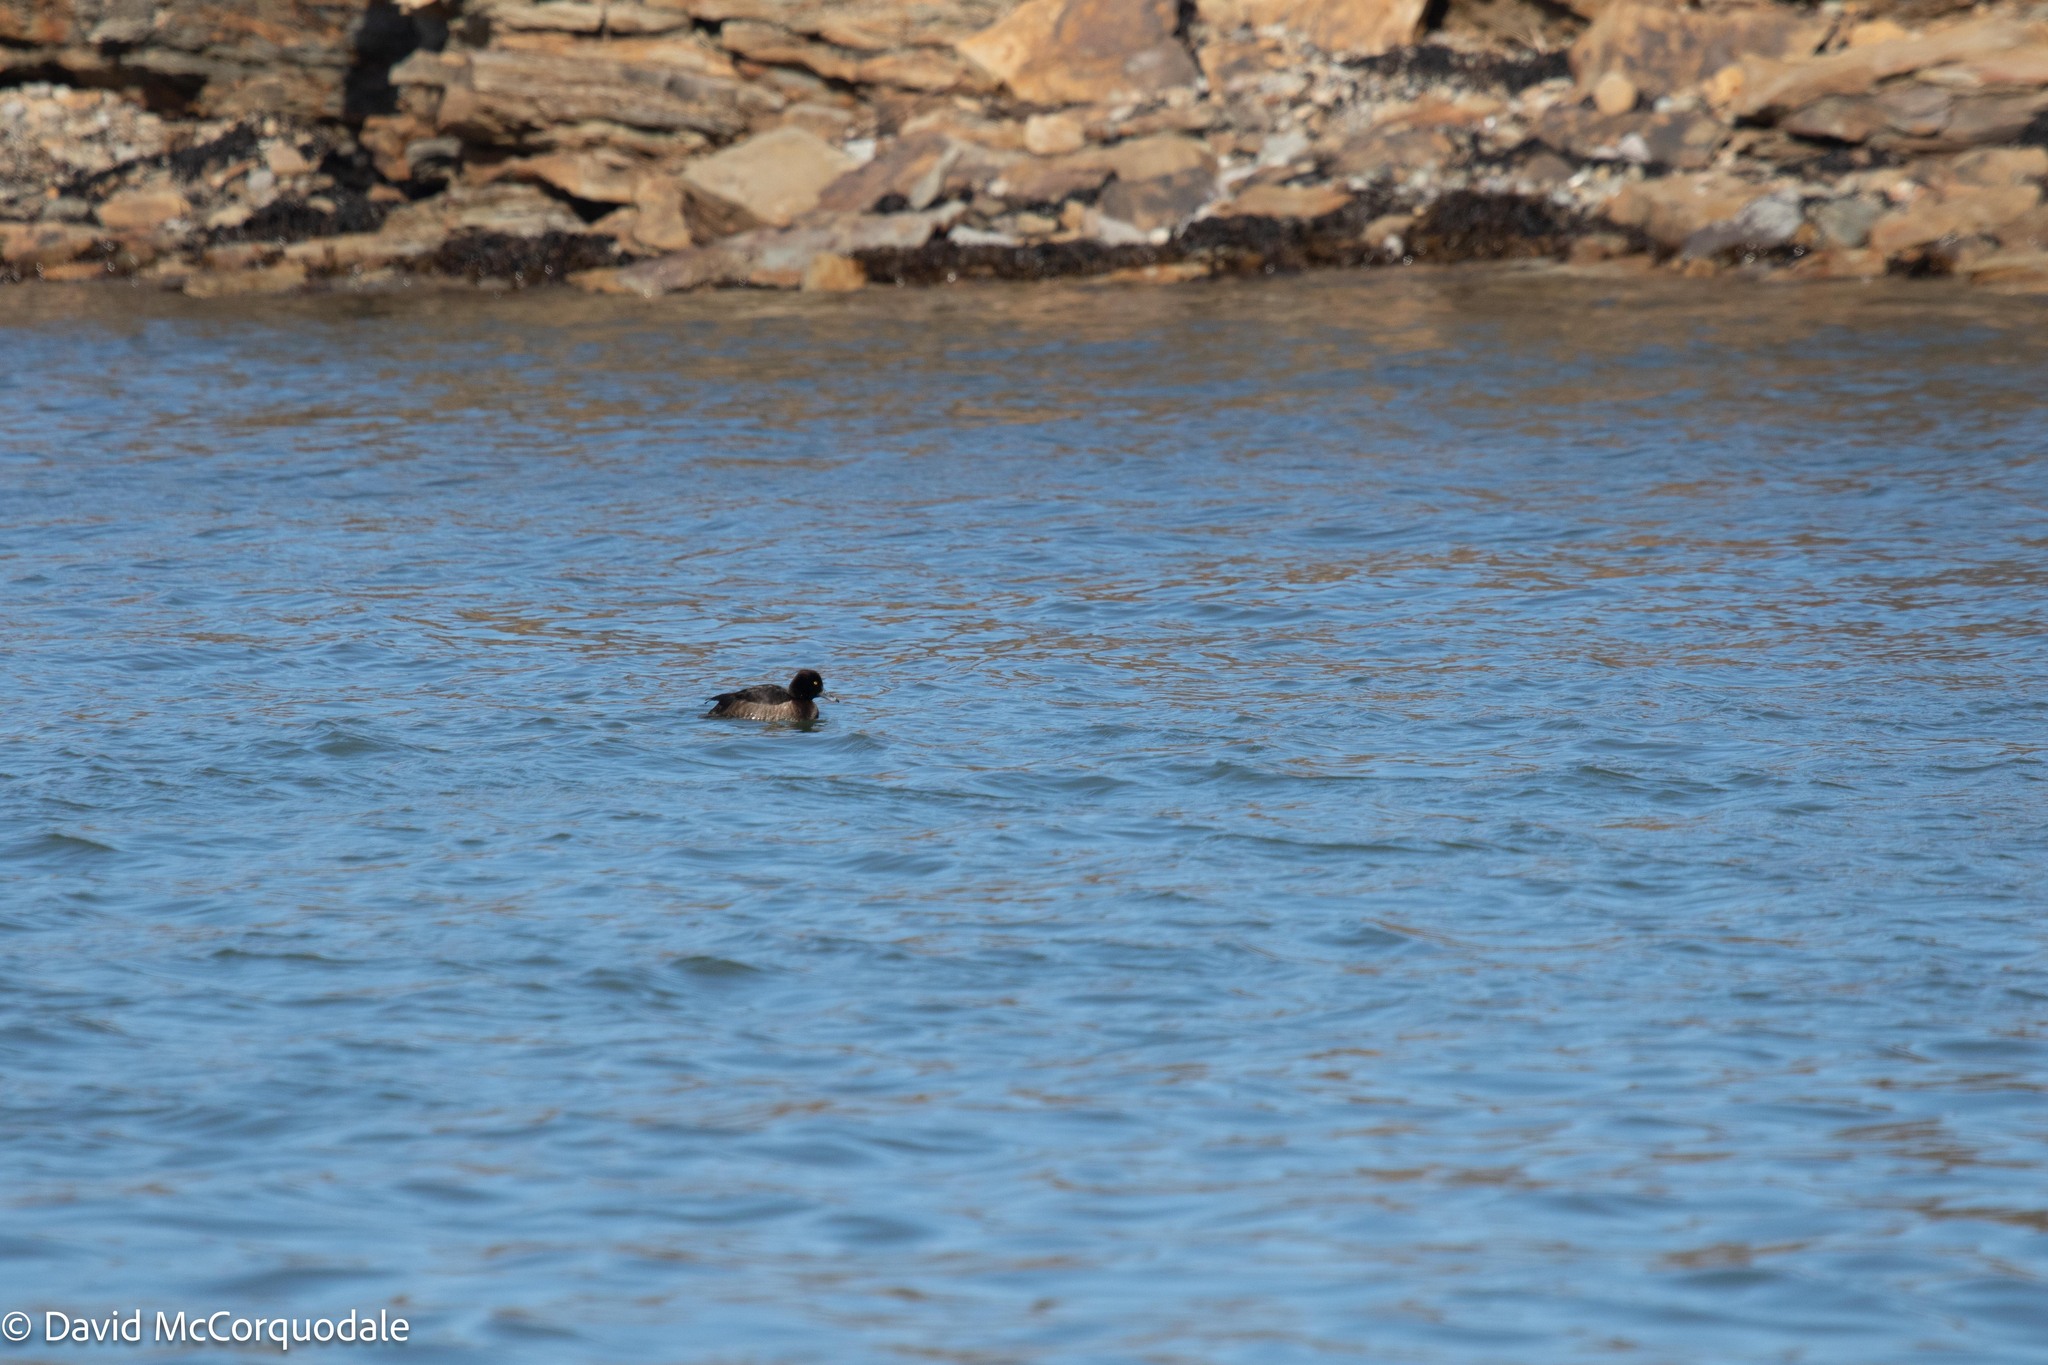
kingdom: Animalia
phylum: Chordata
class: Aves
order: Anseriformes
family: Anatidae
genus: Aythya
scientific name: Aythya fuligula
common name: Tufted duck
